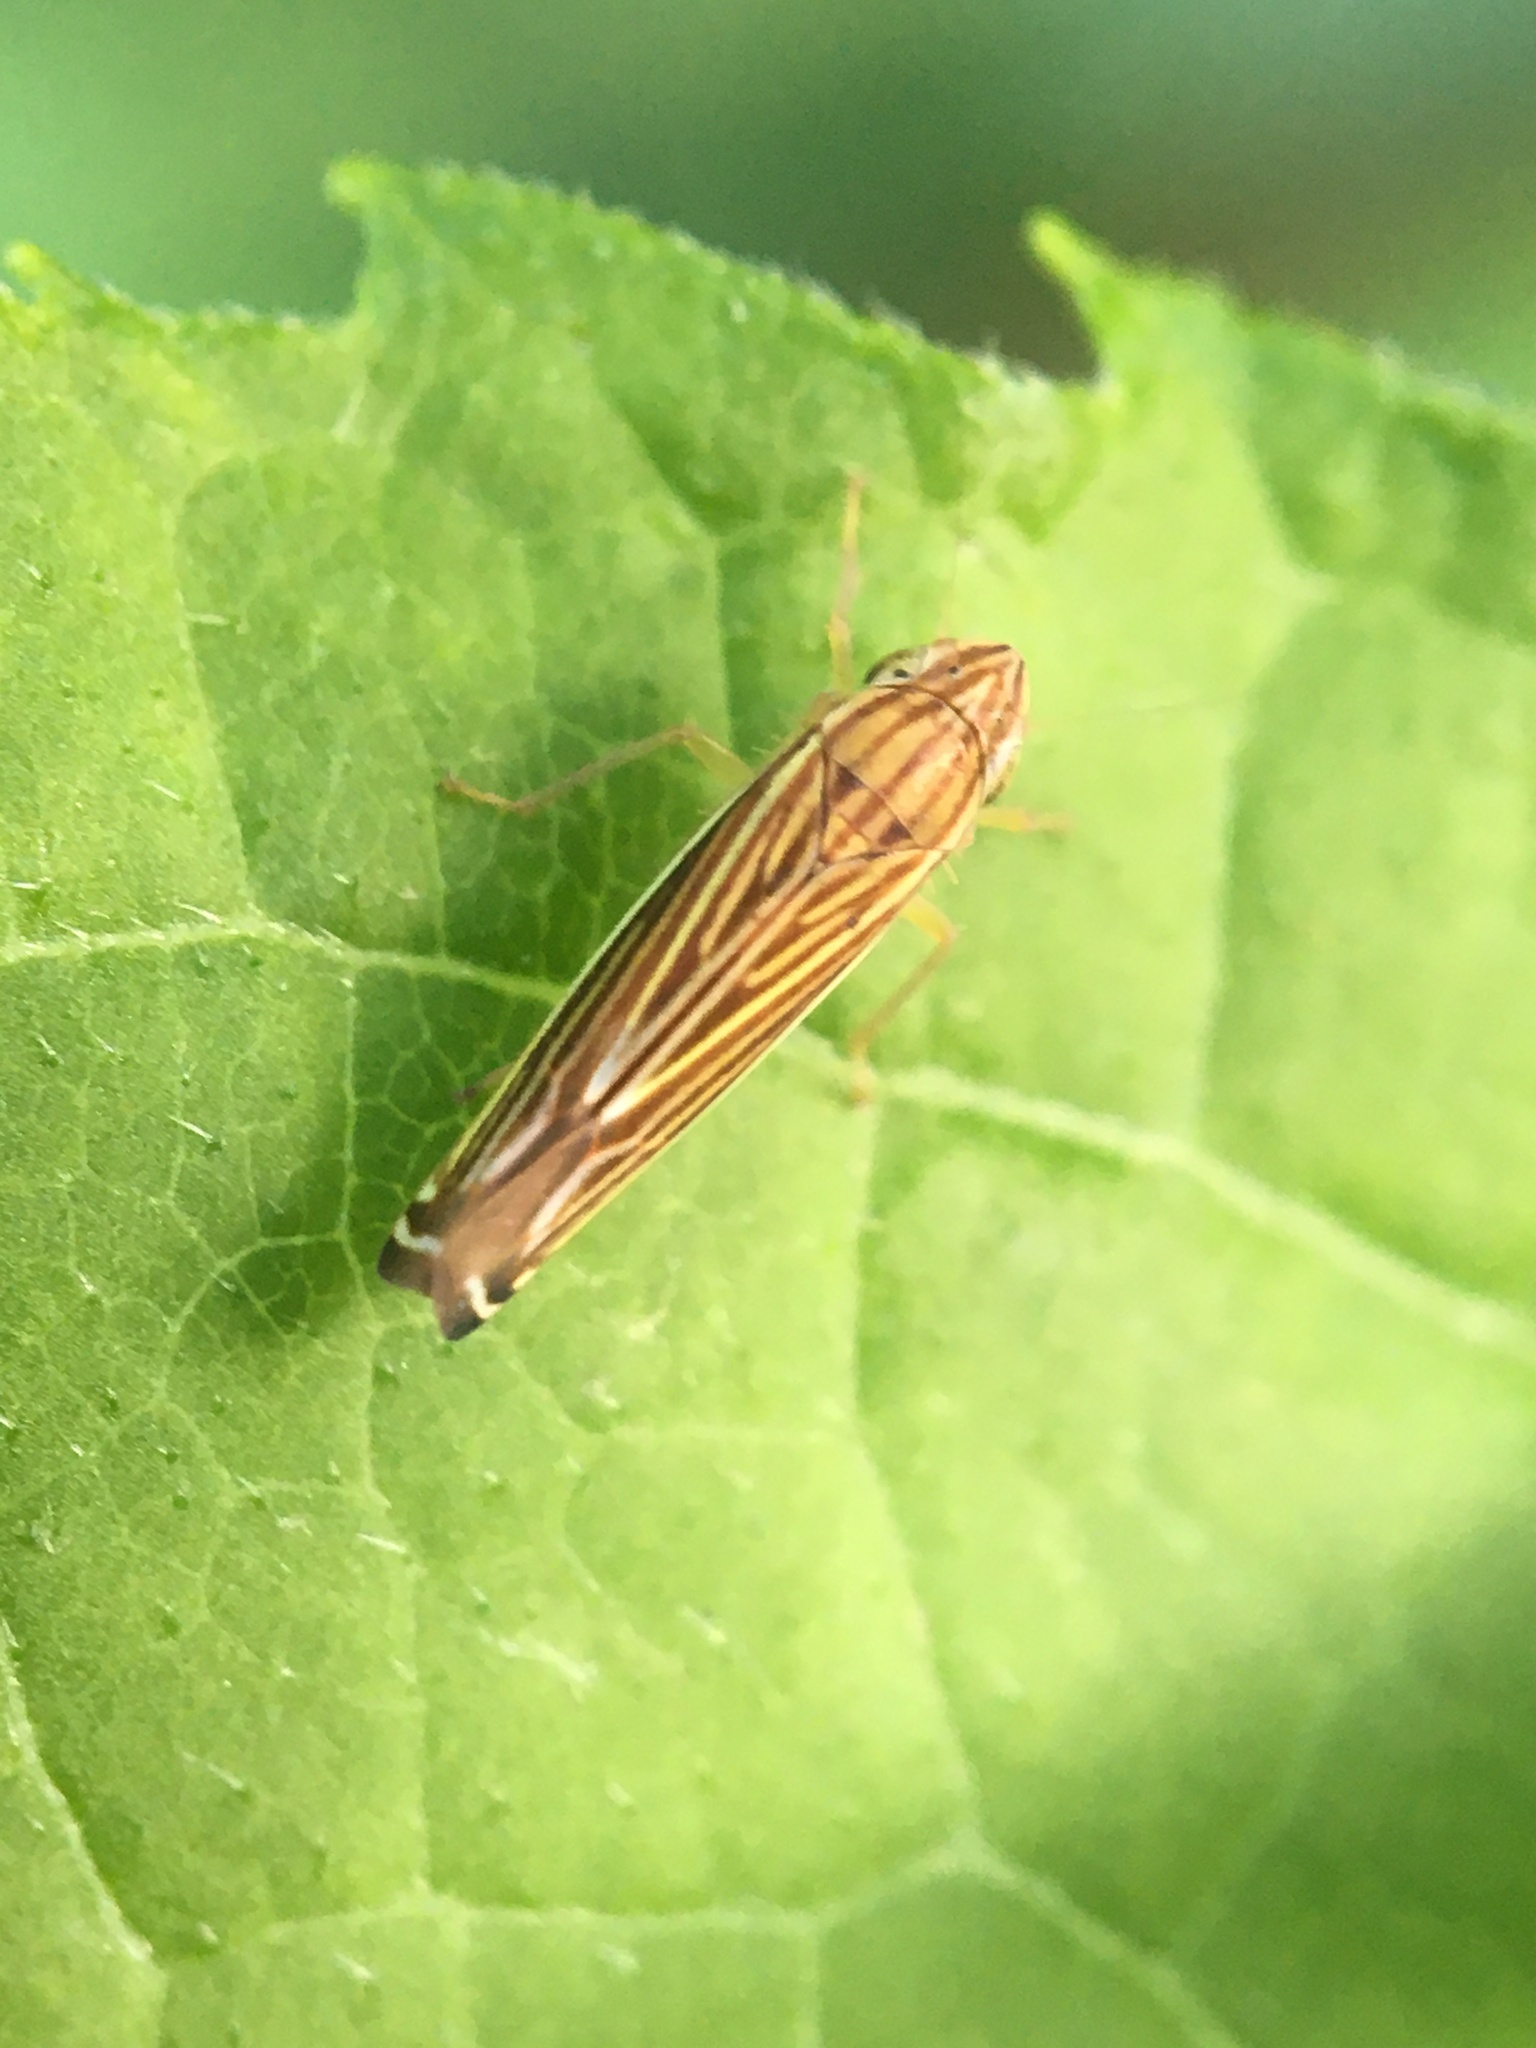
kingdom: Animalia
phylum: Arthropoda
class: Insecta
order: Hemiptera
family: Cicadellidae
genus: Sibovia
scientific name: Sibovia occatoria
